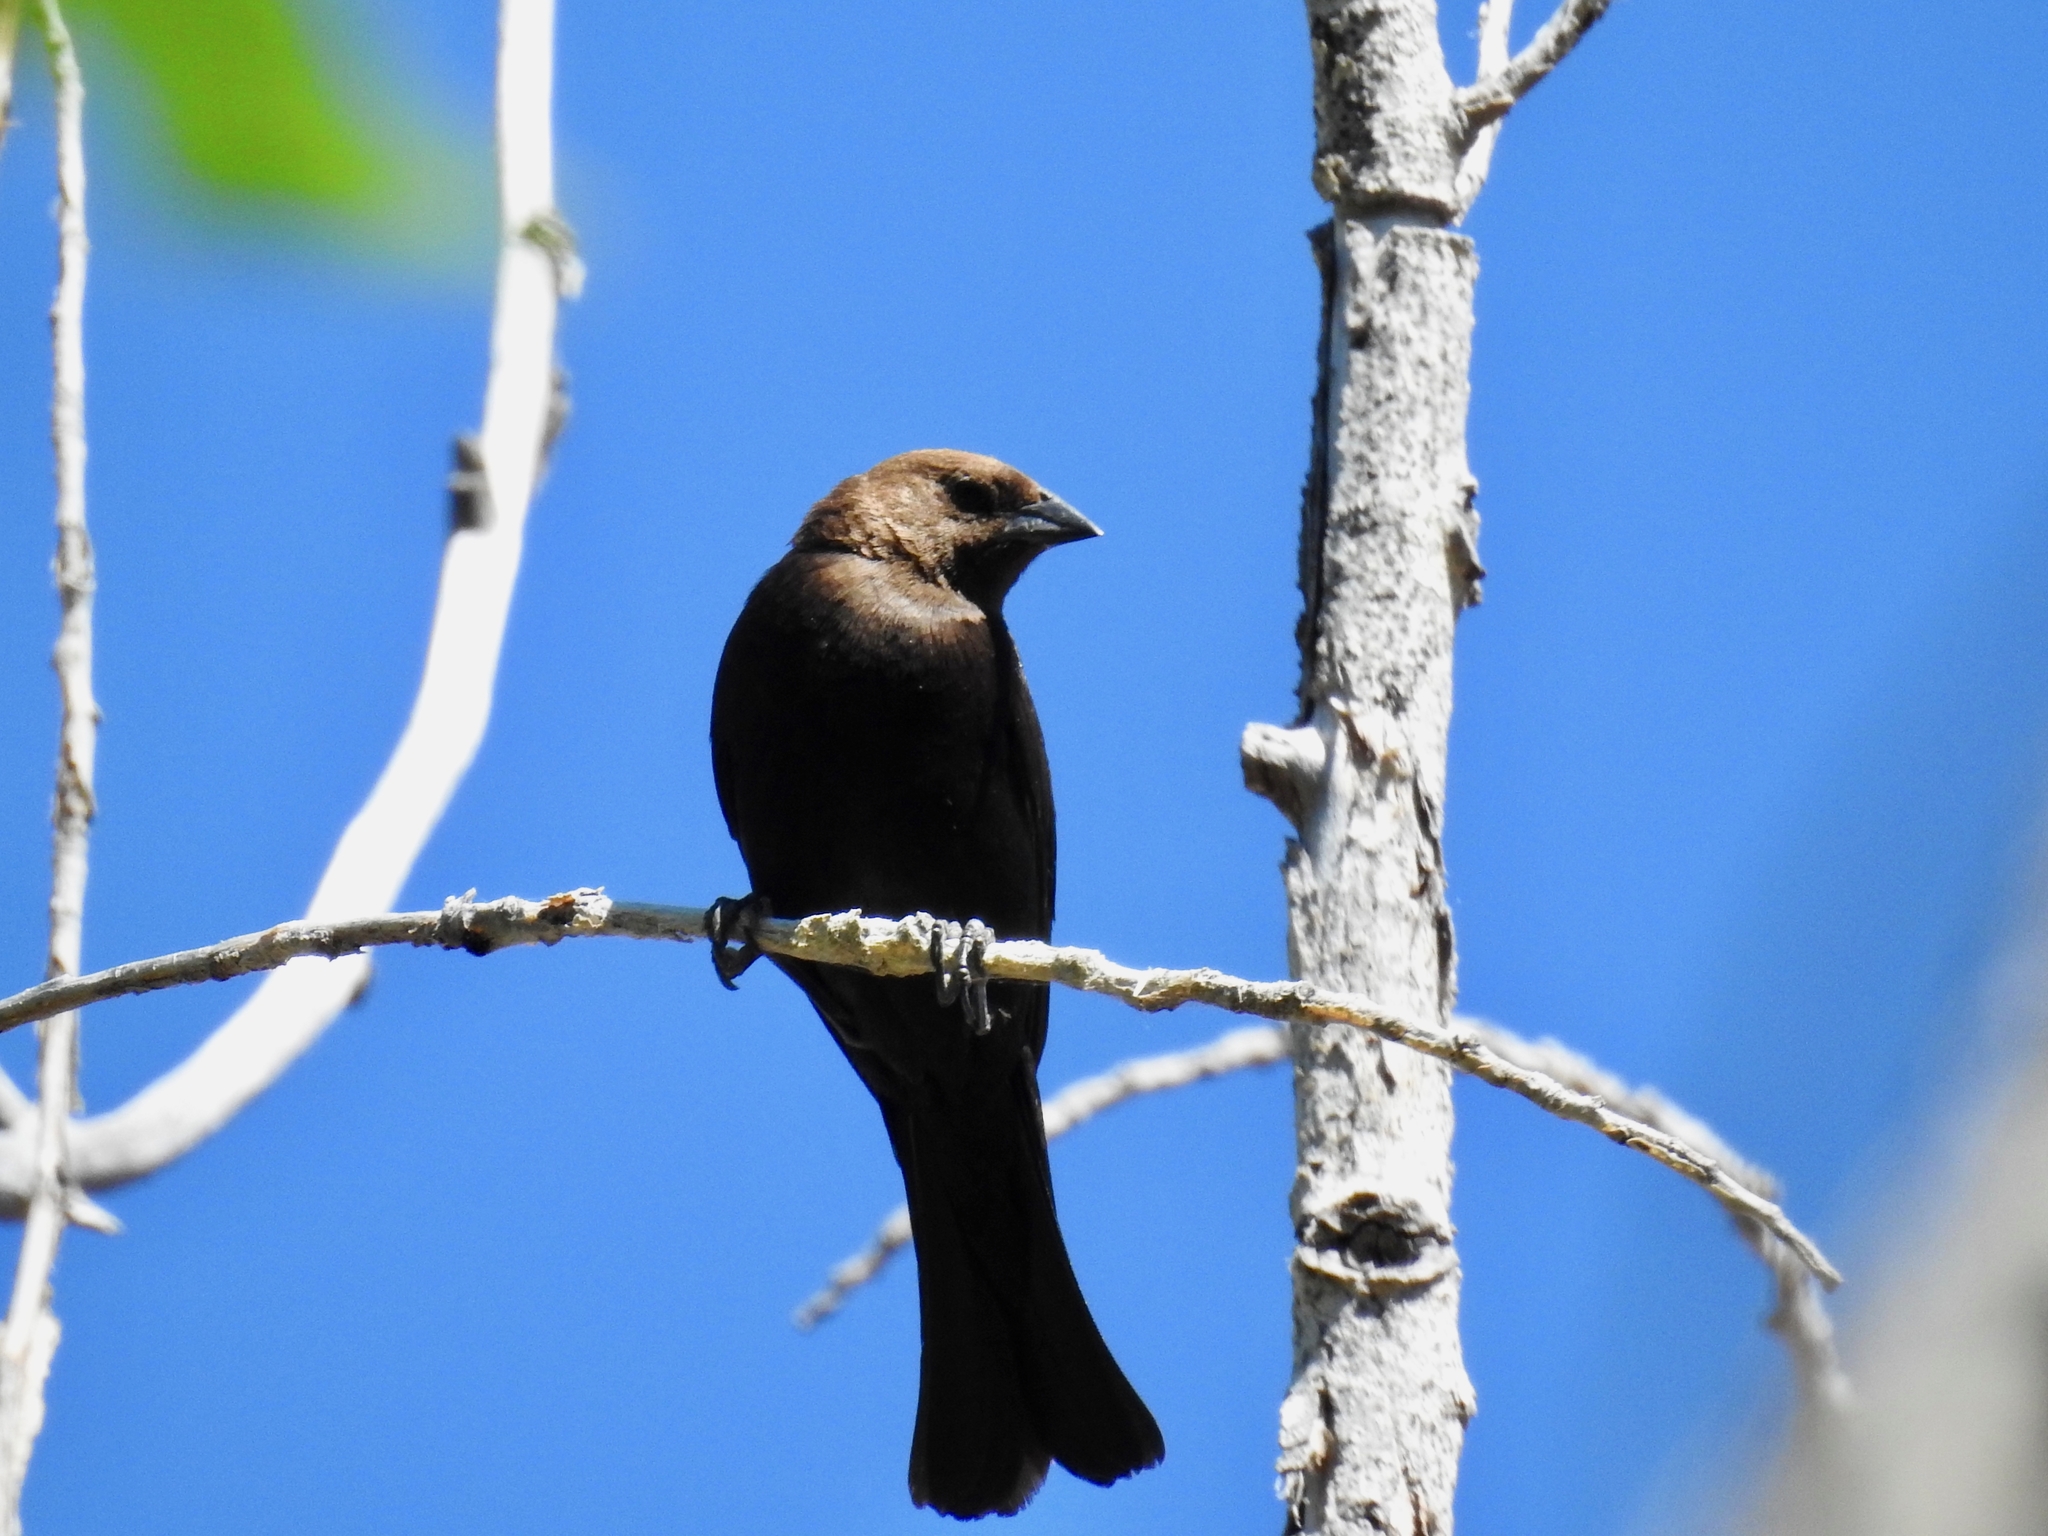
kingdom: Animalia
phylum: Chordata
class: Aves
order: Passeriformes
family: Icteridae
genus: Molothrus
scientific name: Molothrus ater
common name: Brown-headed cowbird
